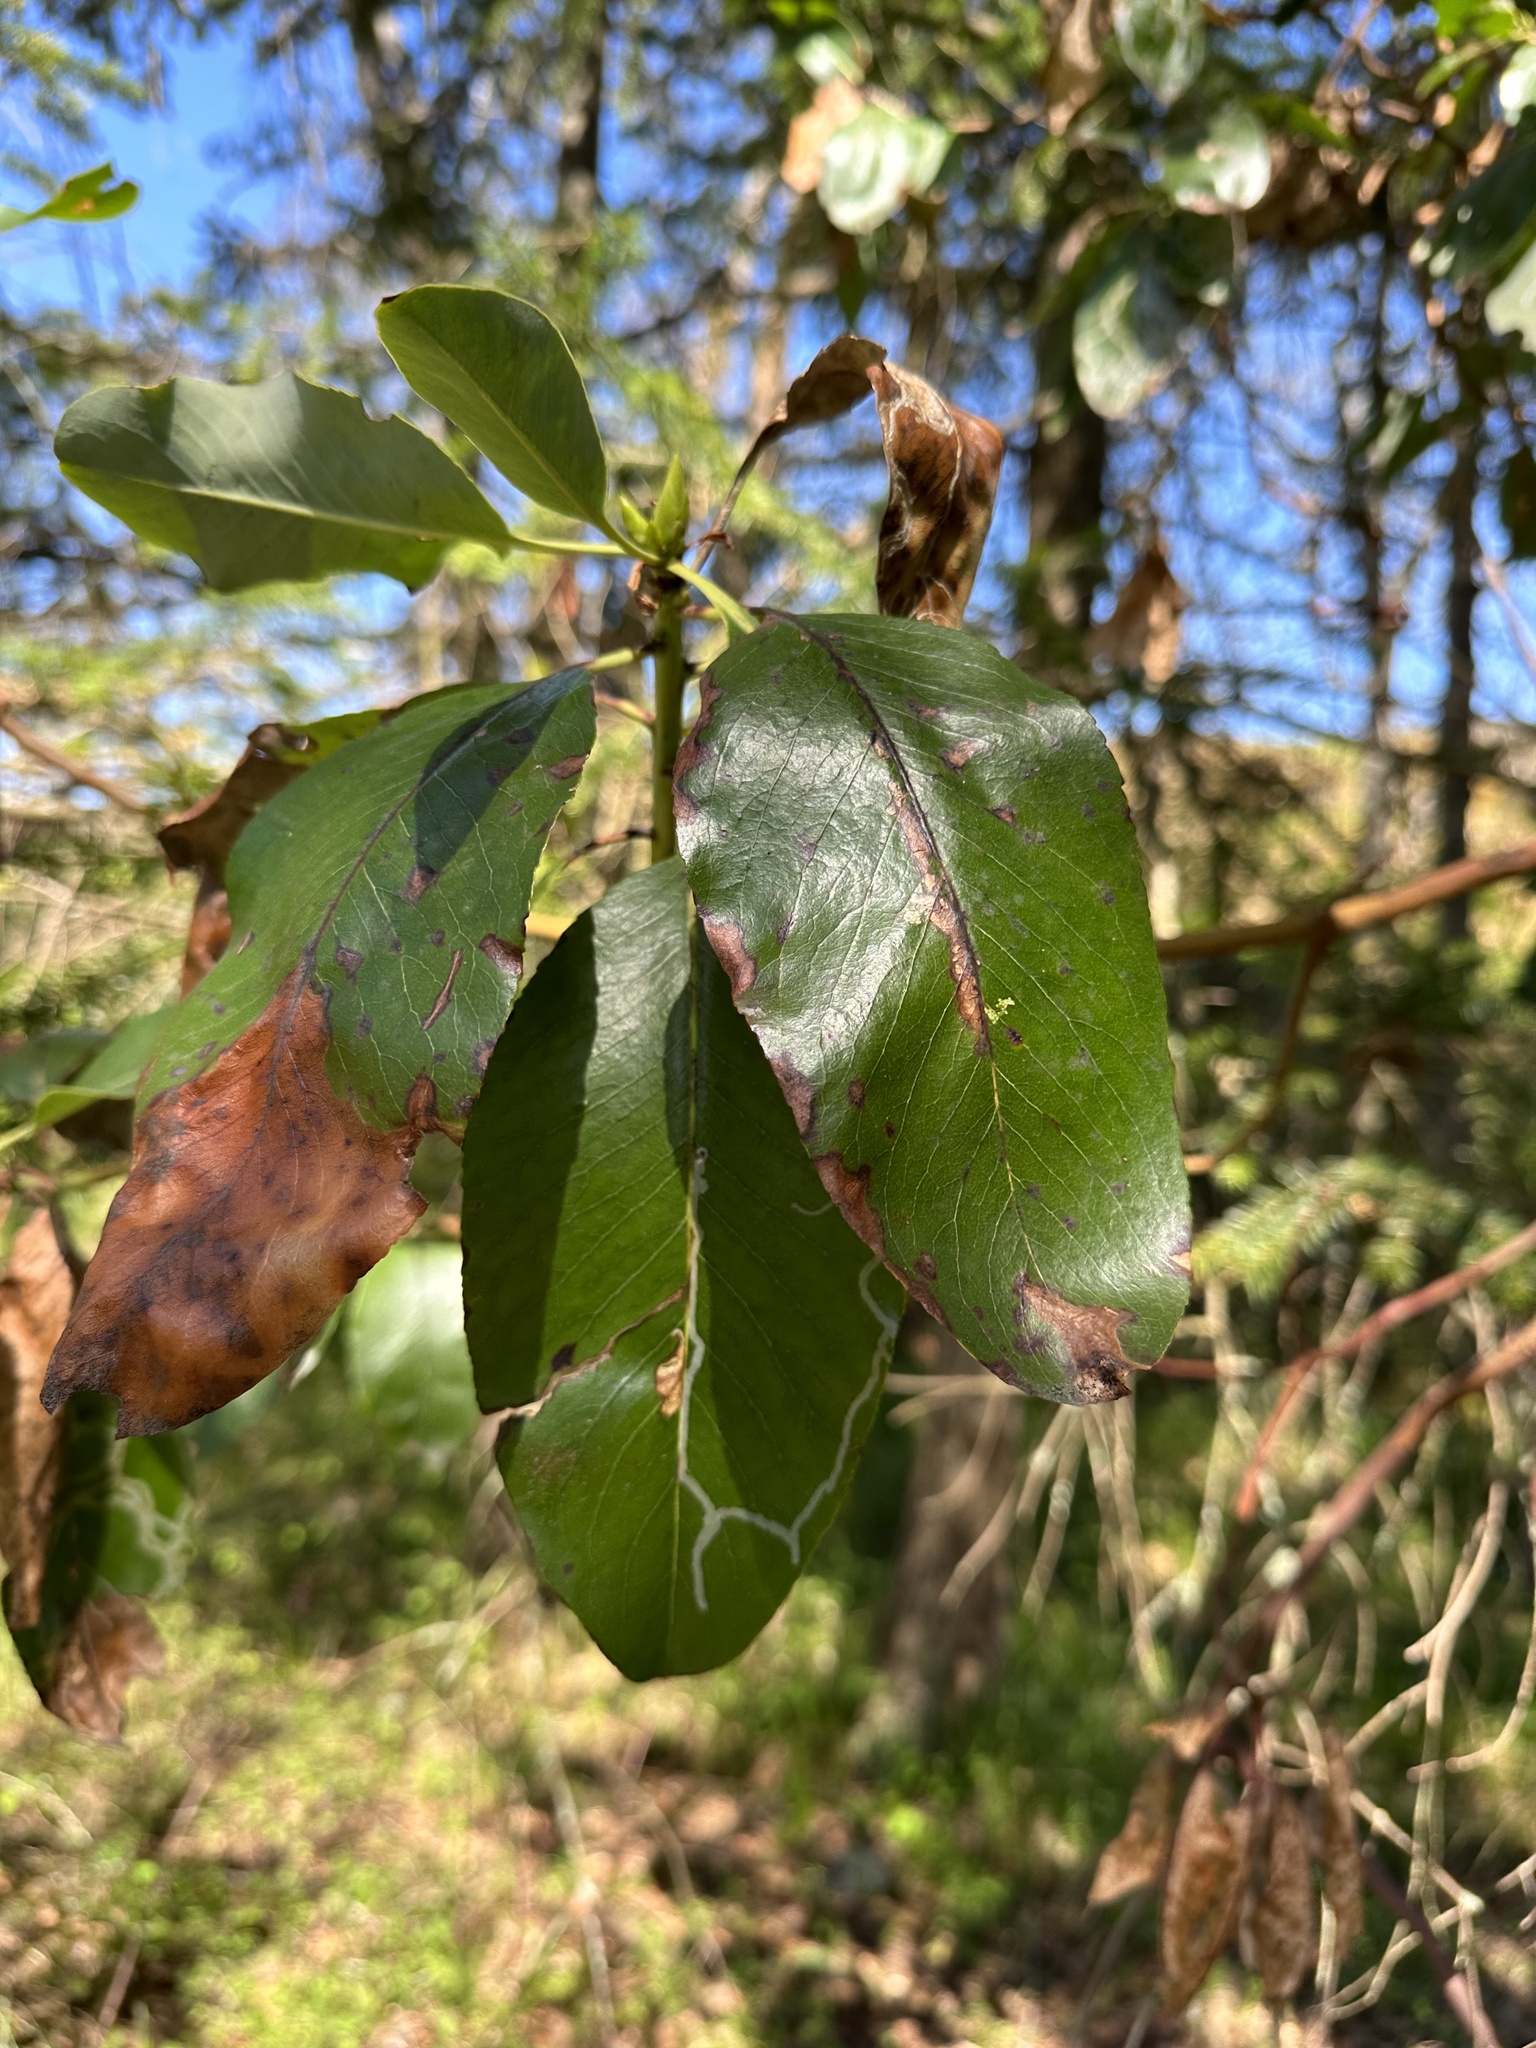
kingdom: Animalia
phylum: Arthropoda
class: Insecta
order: Lepidoptera
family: Gracillariidae
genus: Marmara
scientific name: Marmara arbutiella
